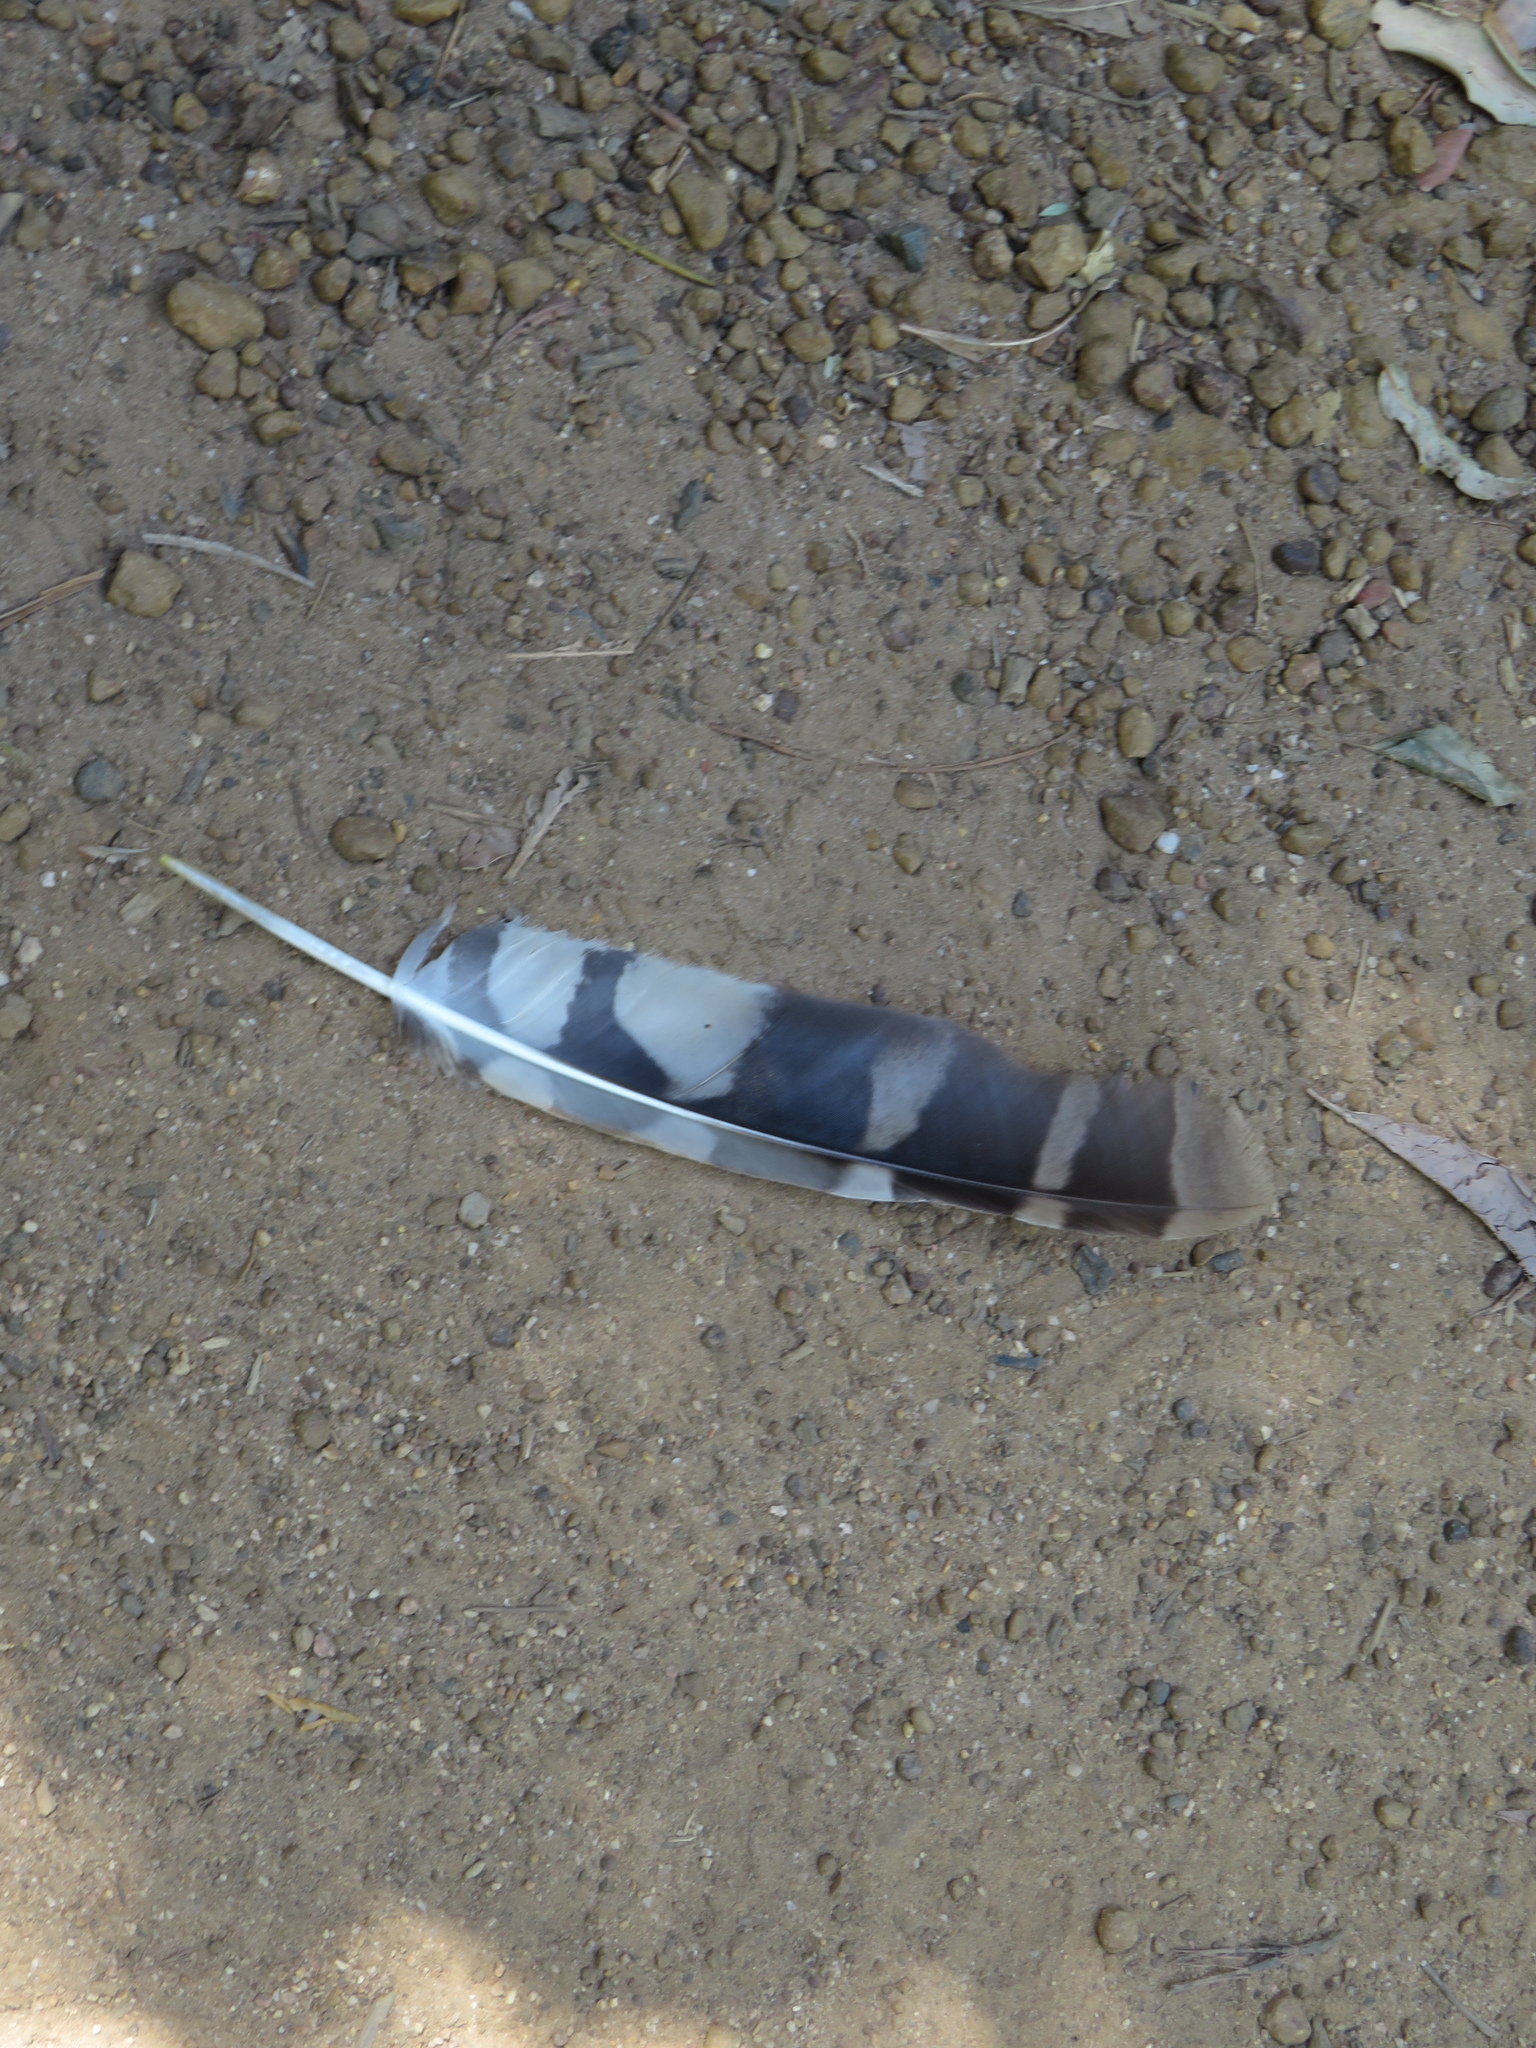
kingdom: Animalia
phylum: Chordata
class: Aves
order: Strigiformes
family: Strigidae
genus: Strix
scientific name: Strix woodfordii
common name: African wood owl
